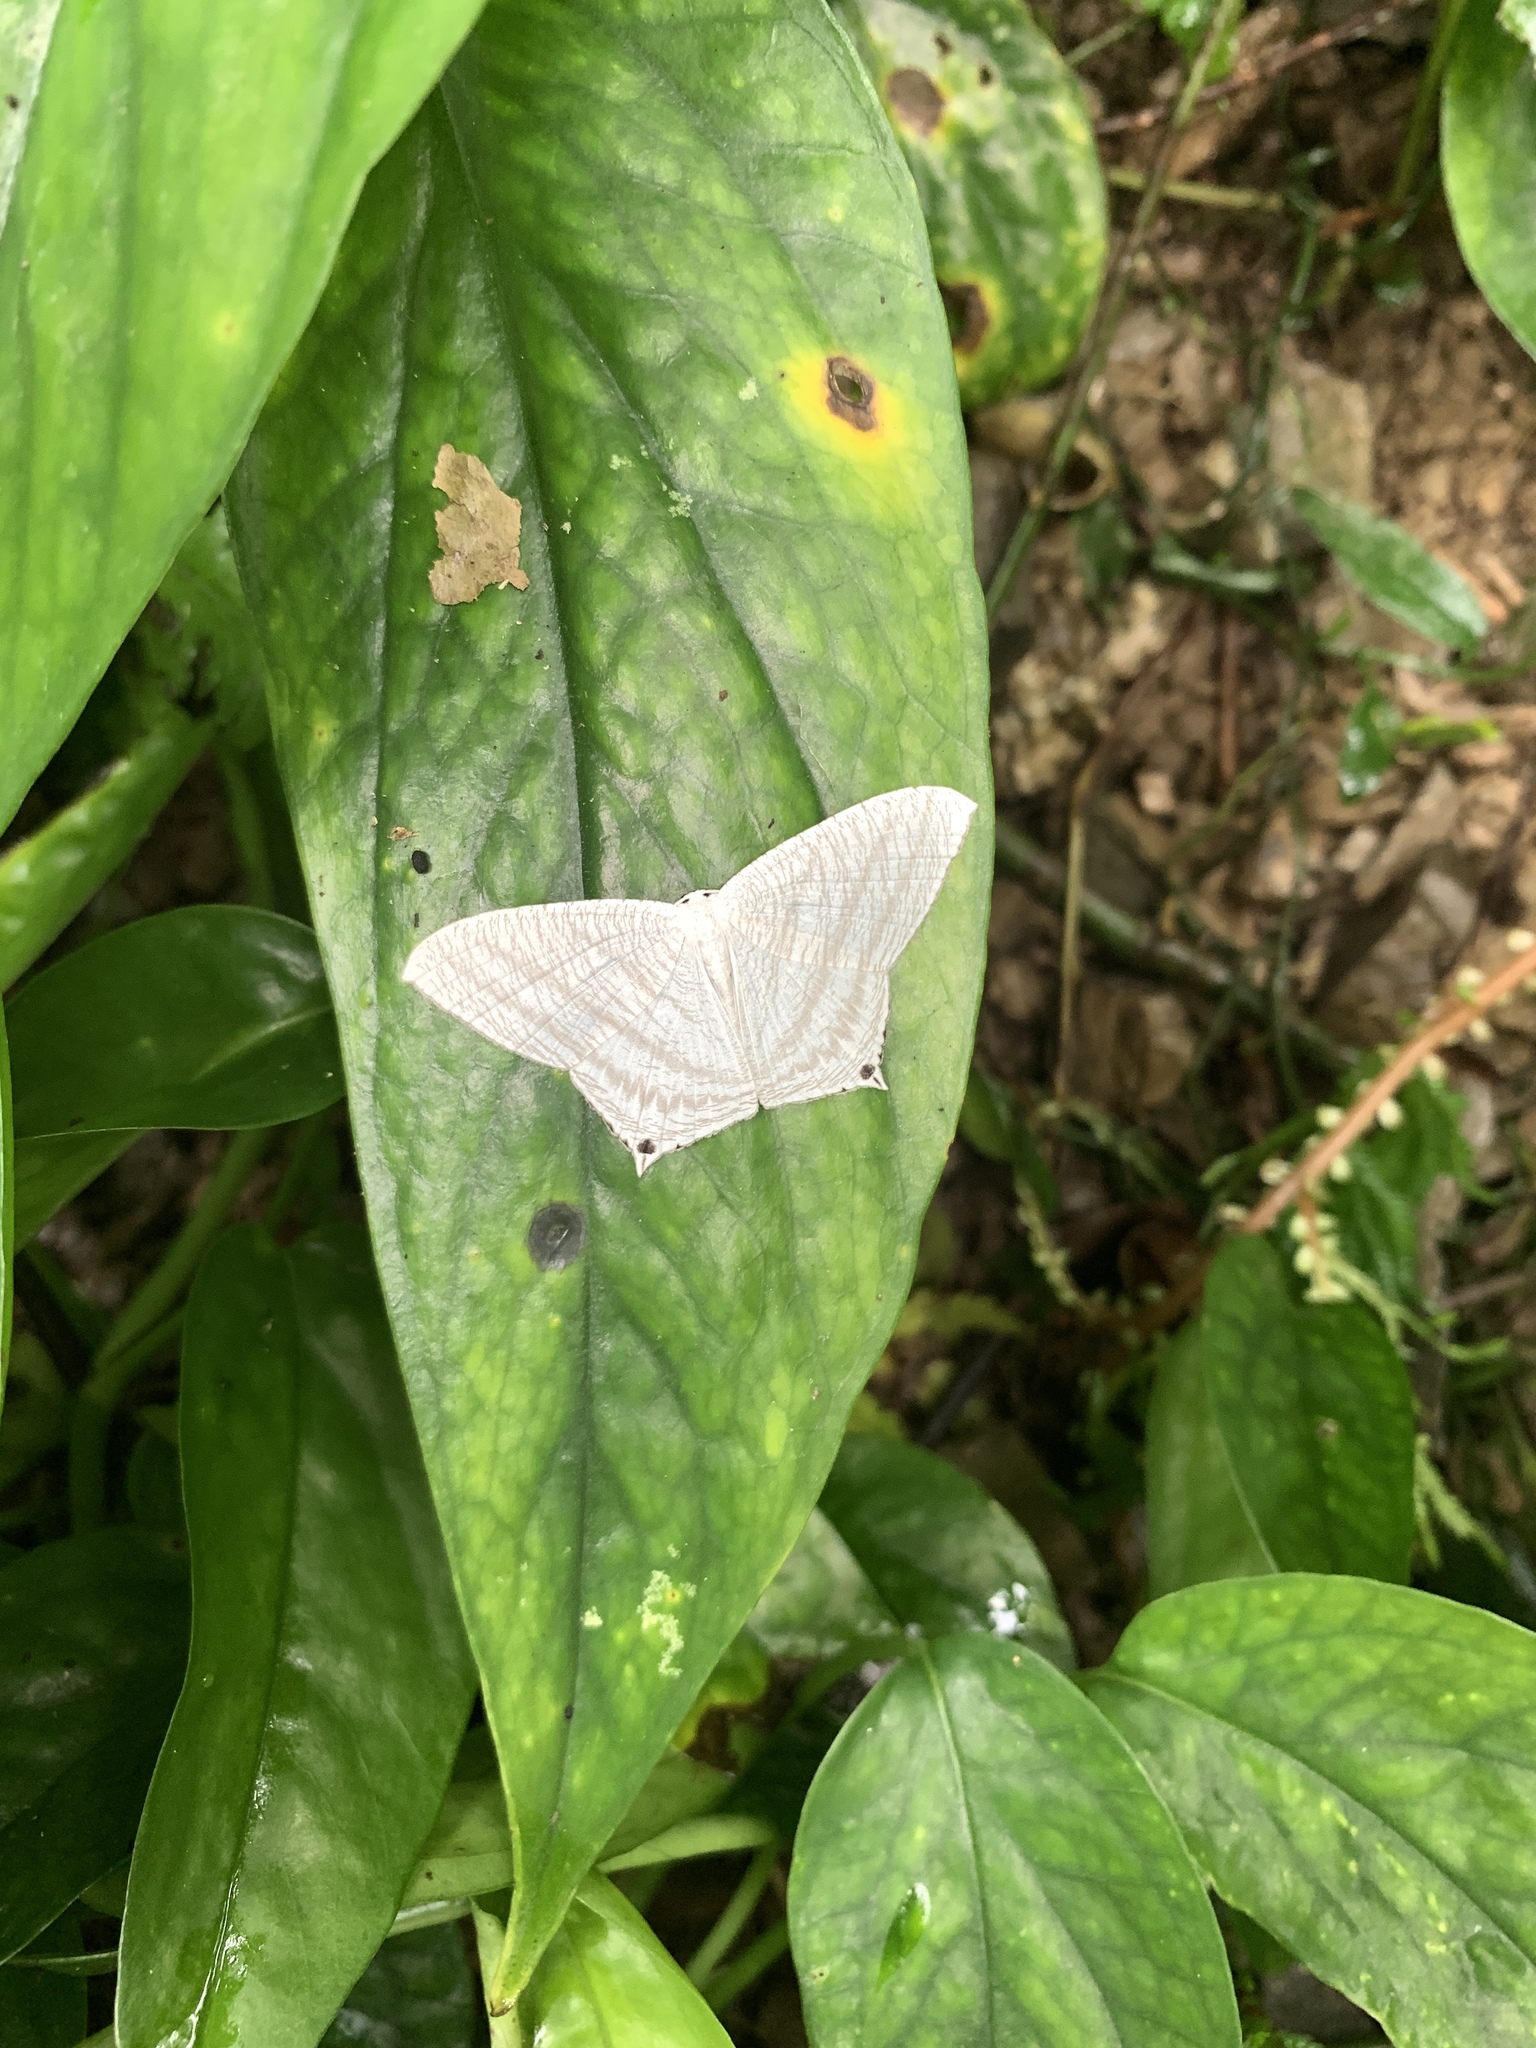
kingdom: Animalia
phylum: Arthropoda
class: Insecta
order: Lepidoptera
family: Uraniidae
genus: Micronia
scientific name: Micronia aculeata
